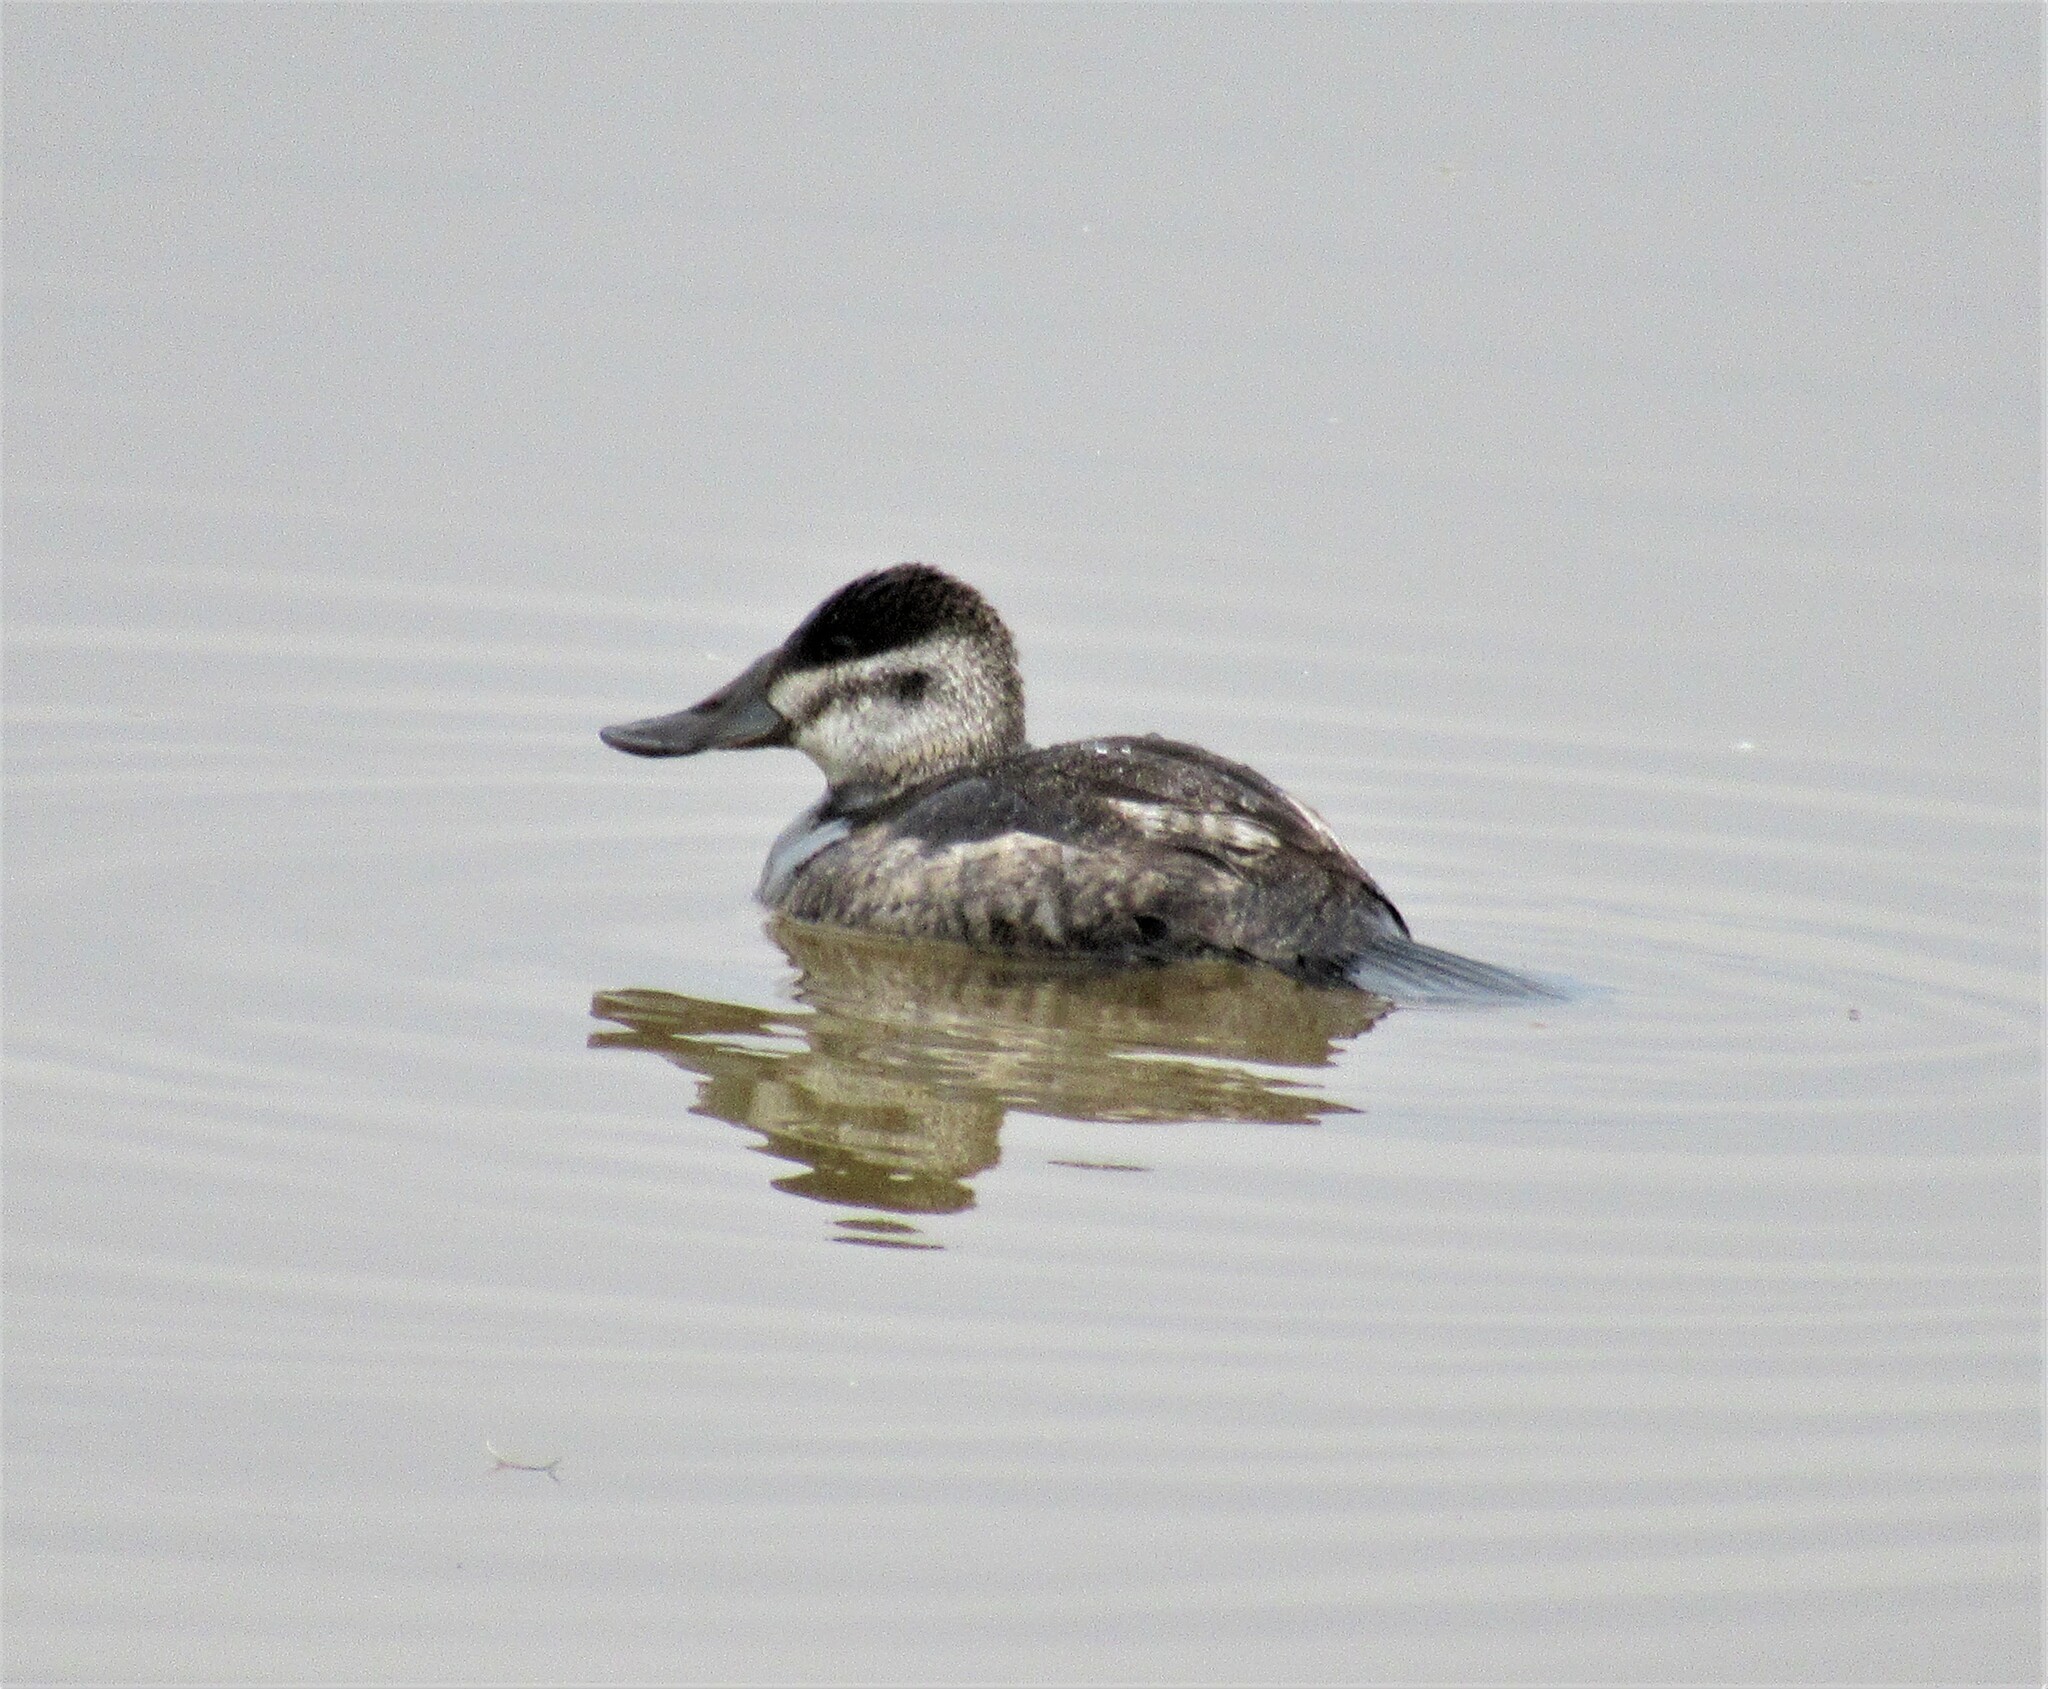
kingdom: Animalia
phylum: Chordata
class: Aves
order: Anseriformes
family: Anatidae
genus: Oxyura
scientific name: Oxyura jamaicensis
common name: Ruddy duck
